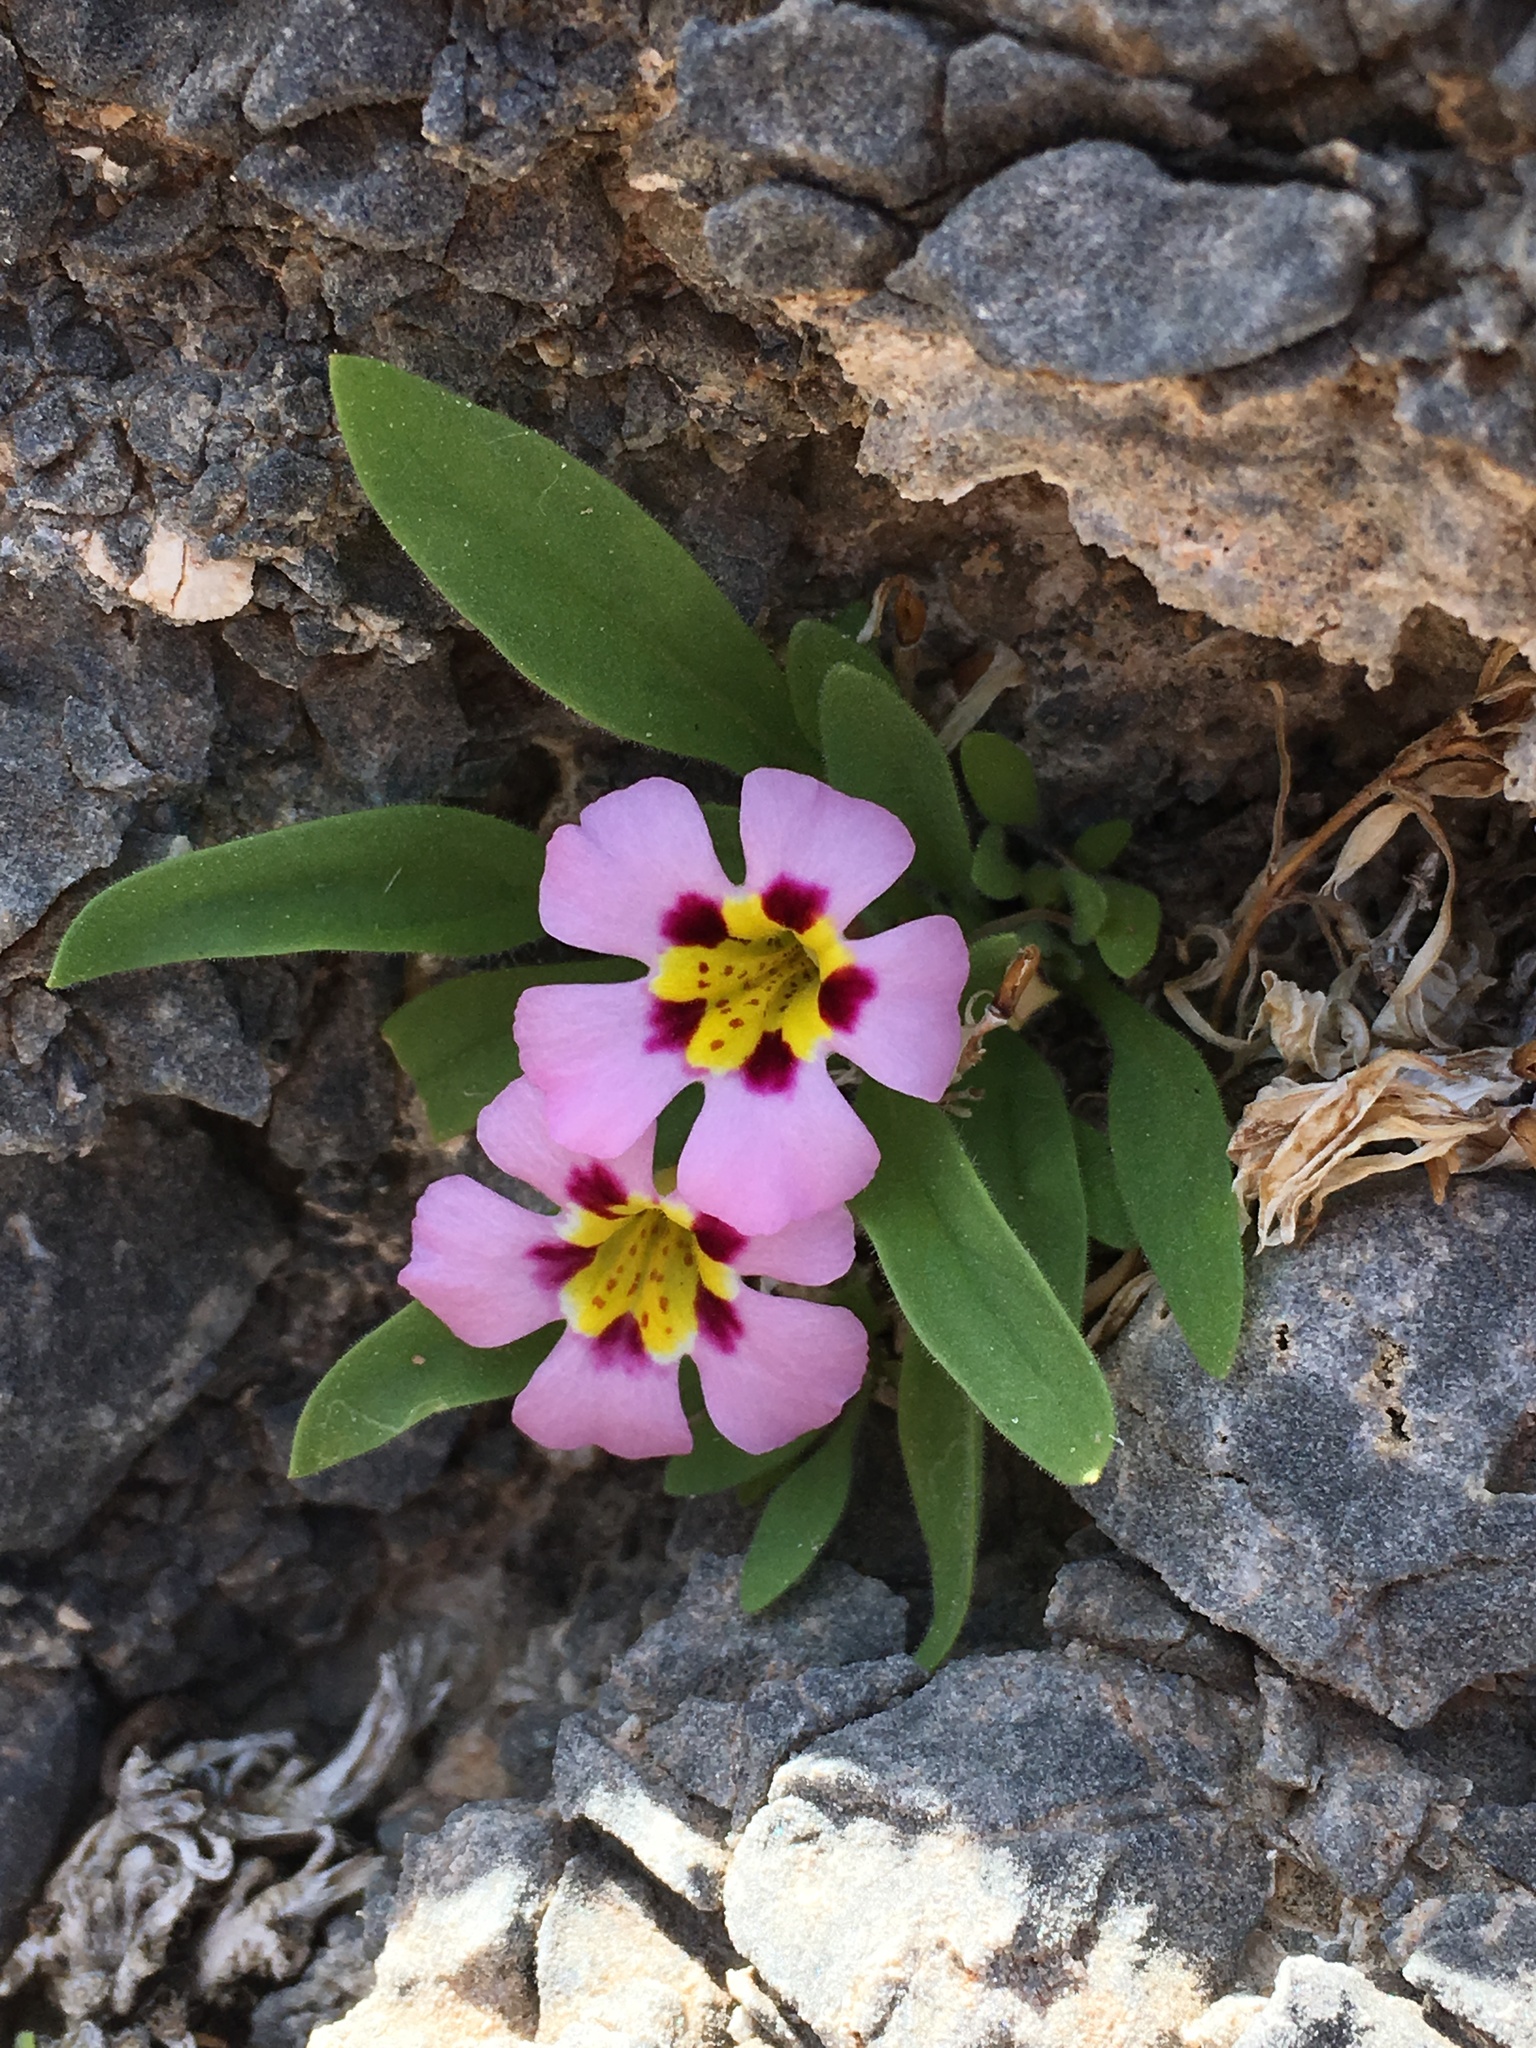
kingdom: Plantae
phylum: Tracheophyta
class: Magnoliopsida
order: Lamiales
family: Phrymaceae
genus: Diplacus
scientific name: Diplacus rupicola
